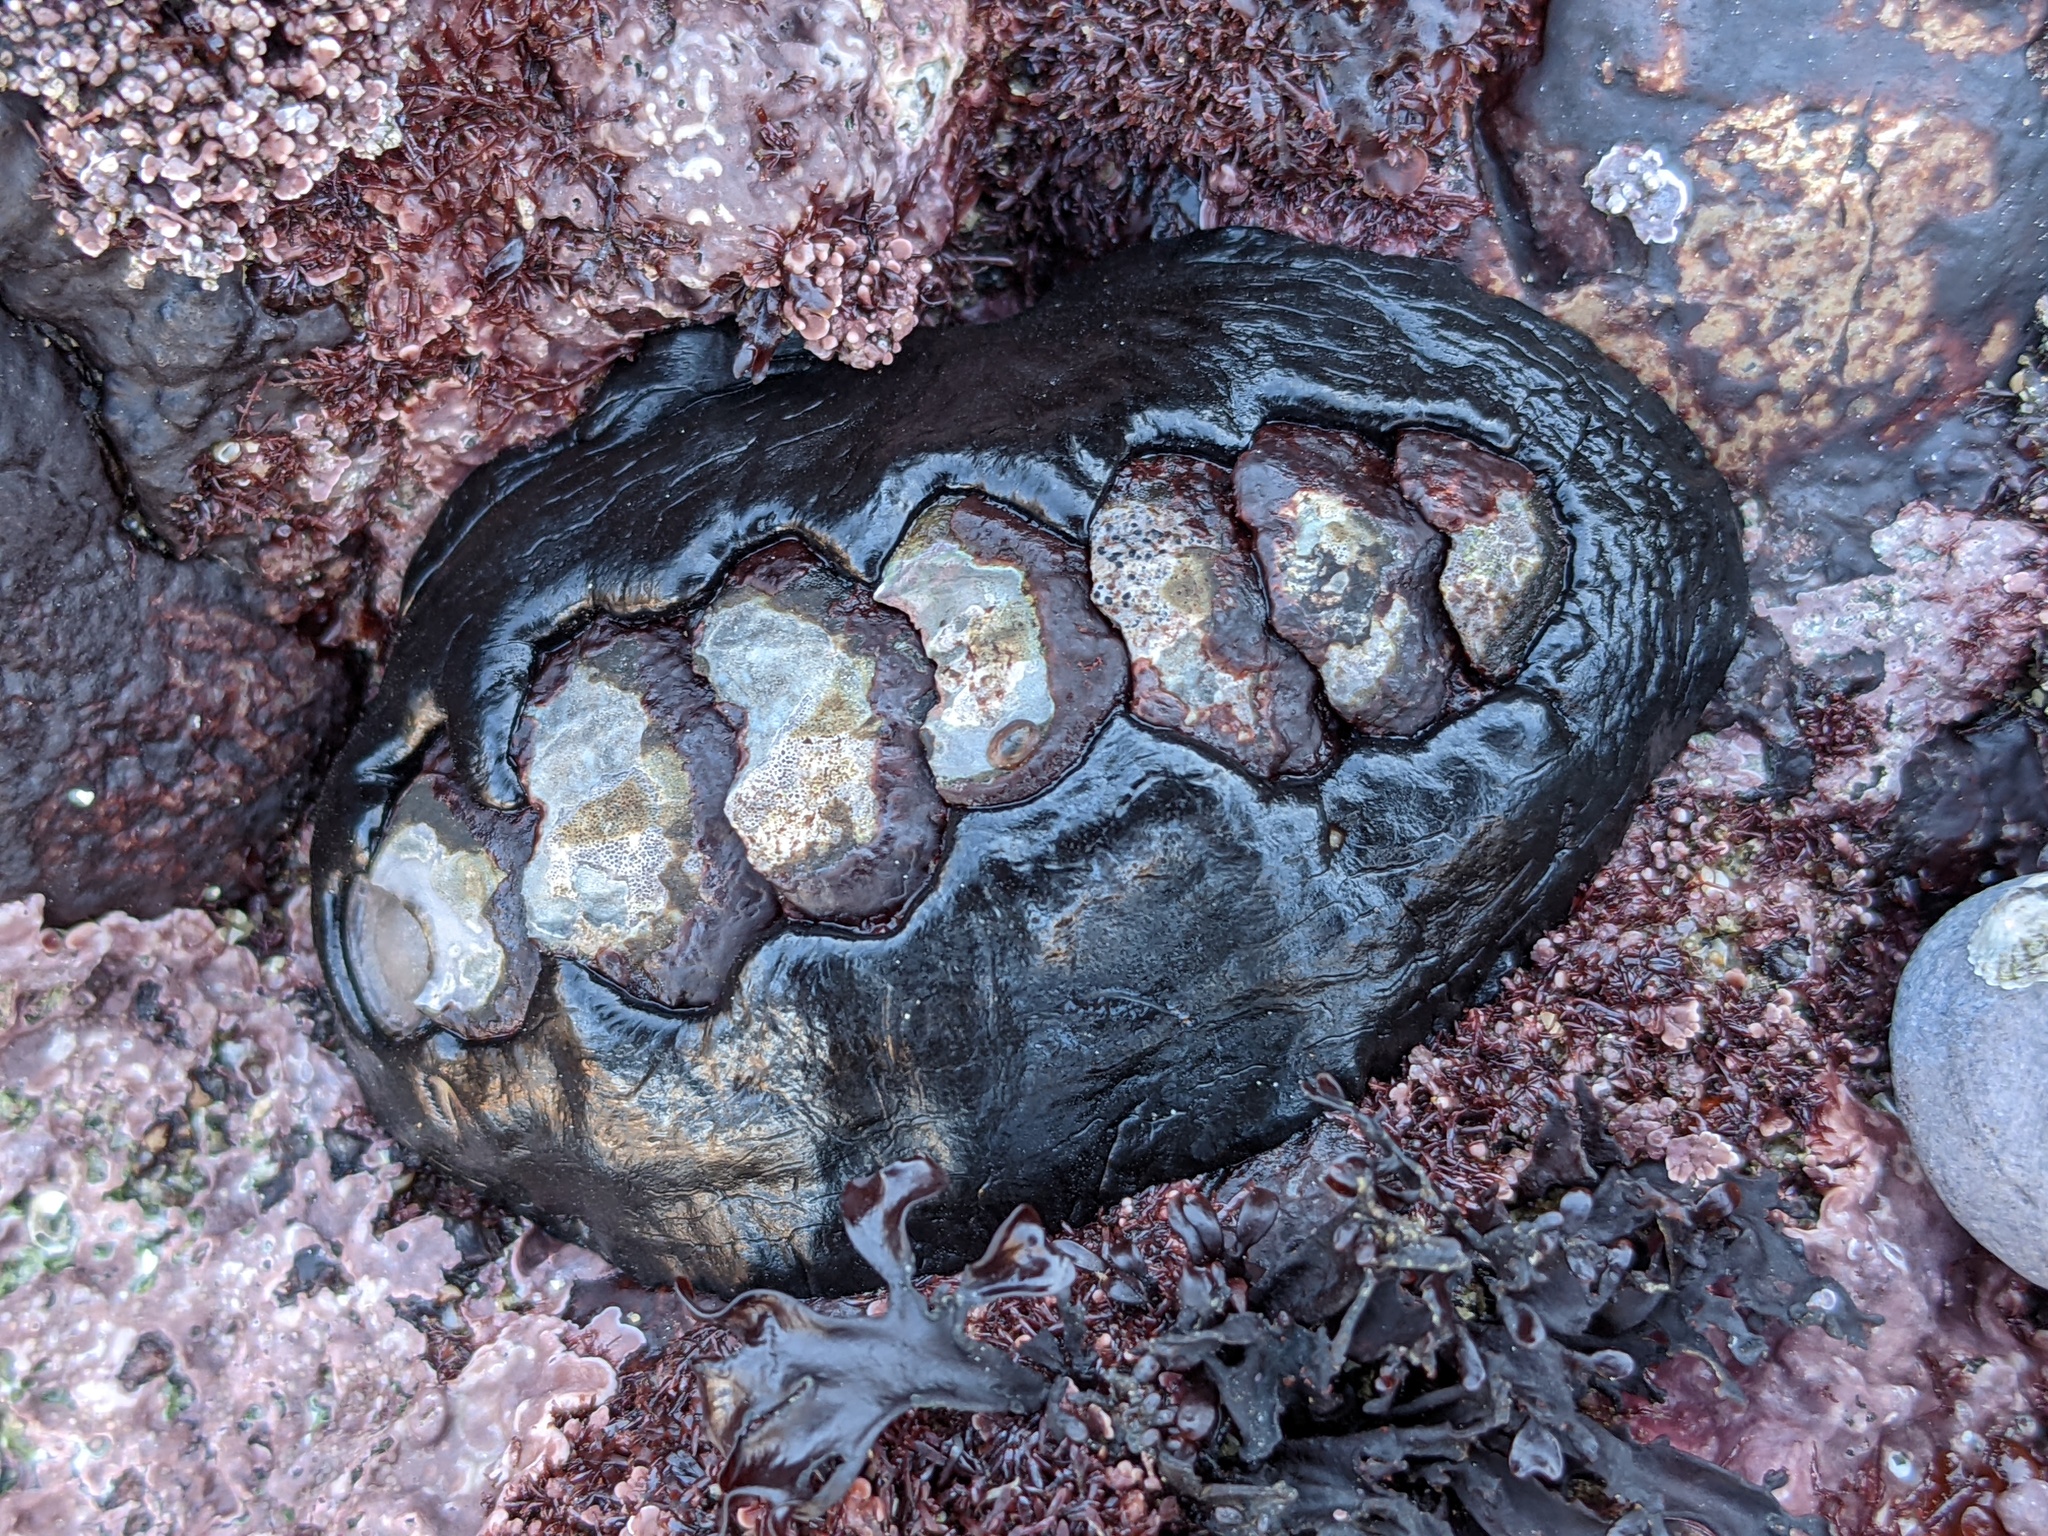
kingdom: Animalia
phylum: Mollusca
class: Polyplacophora
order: Chitonida
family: Mopaliidae
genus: Katharina
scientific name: Katharina tunicata
